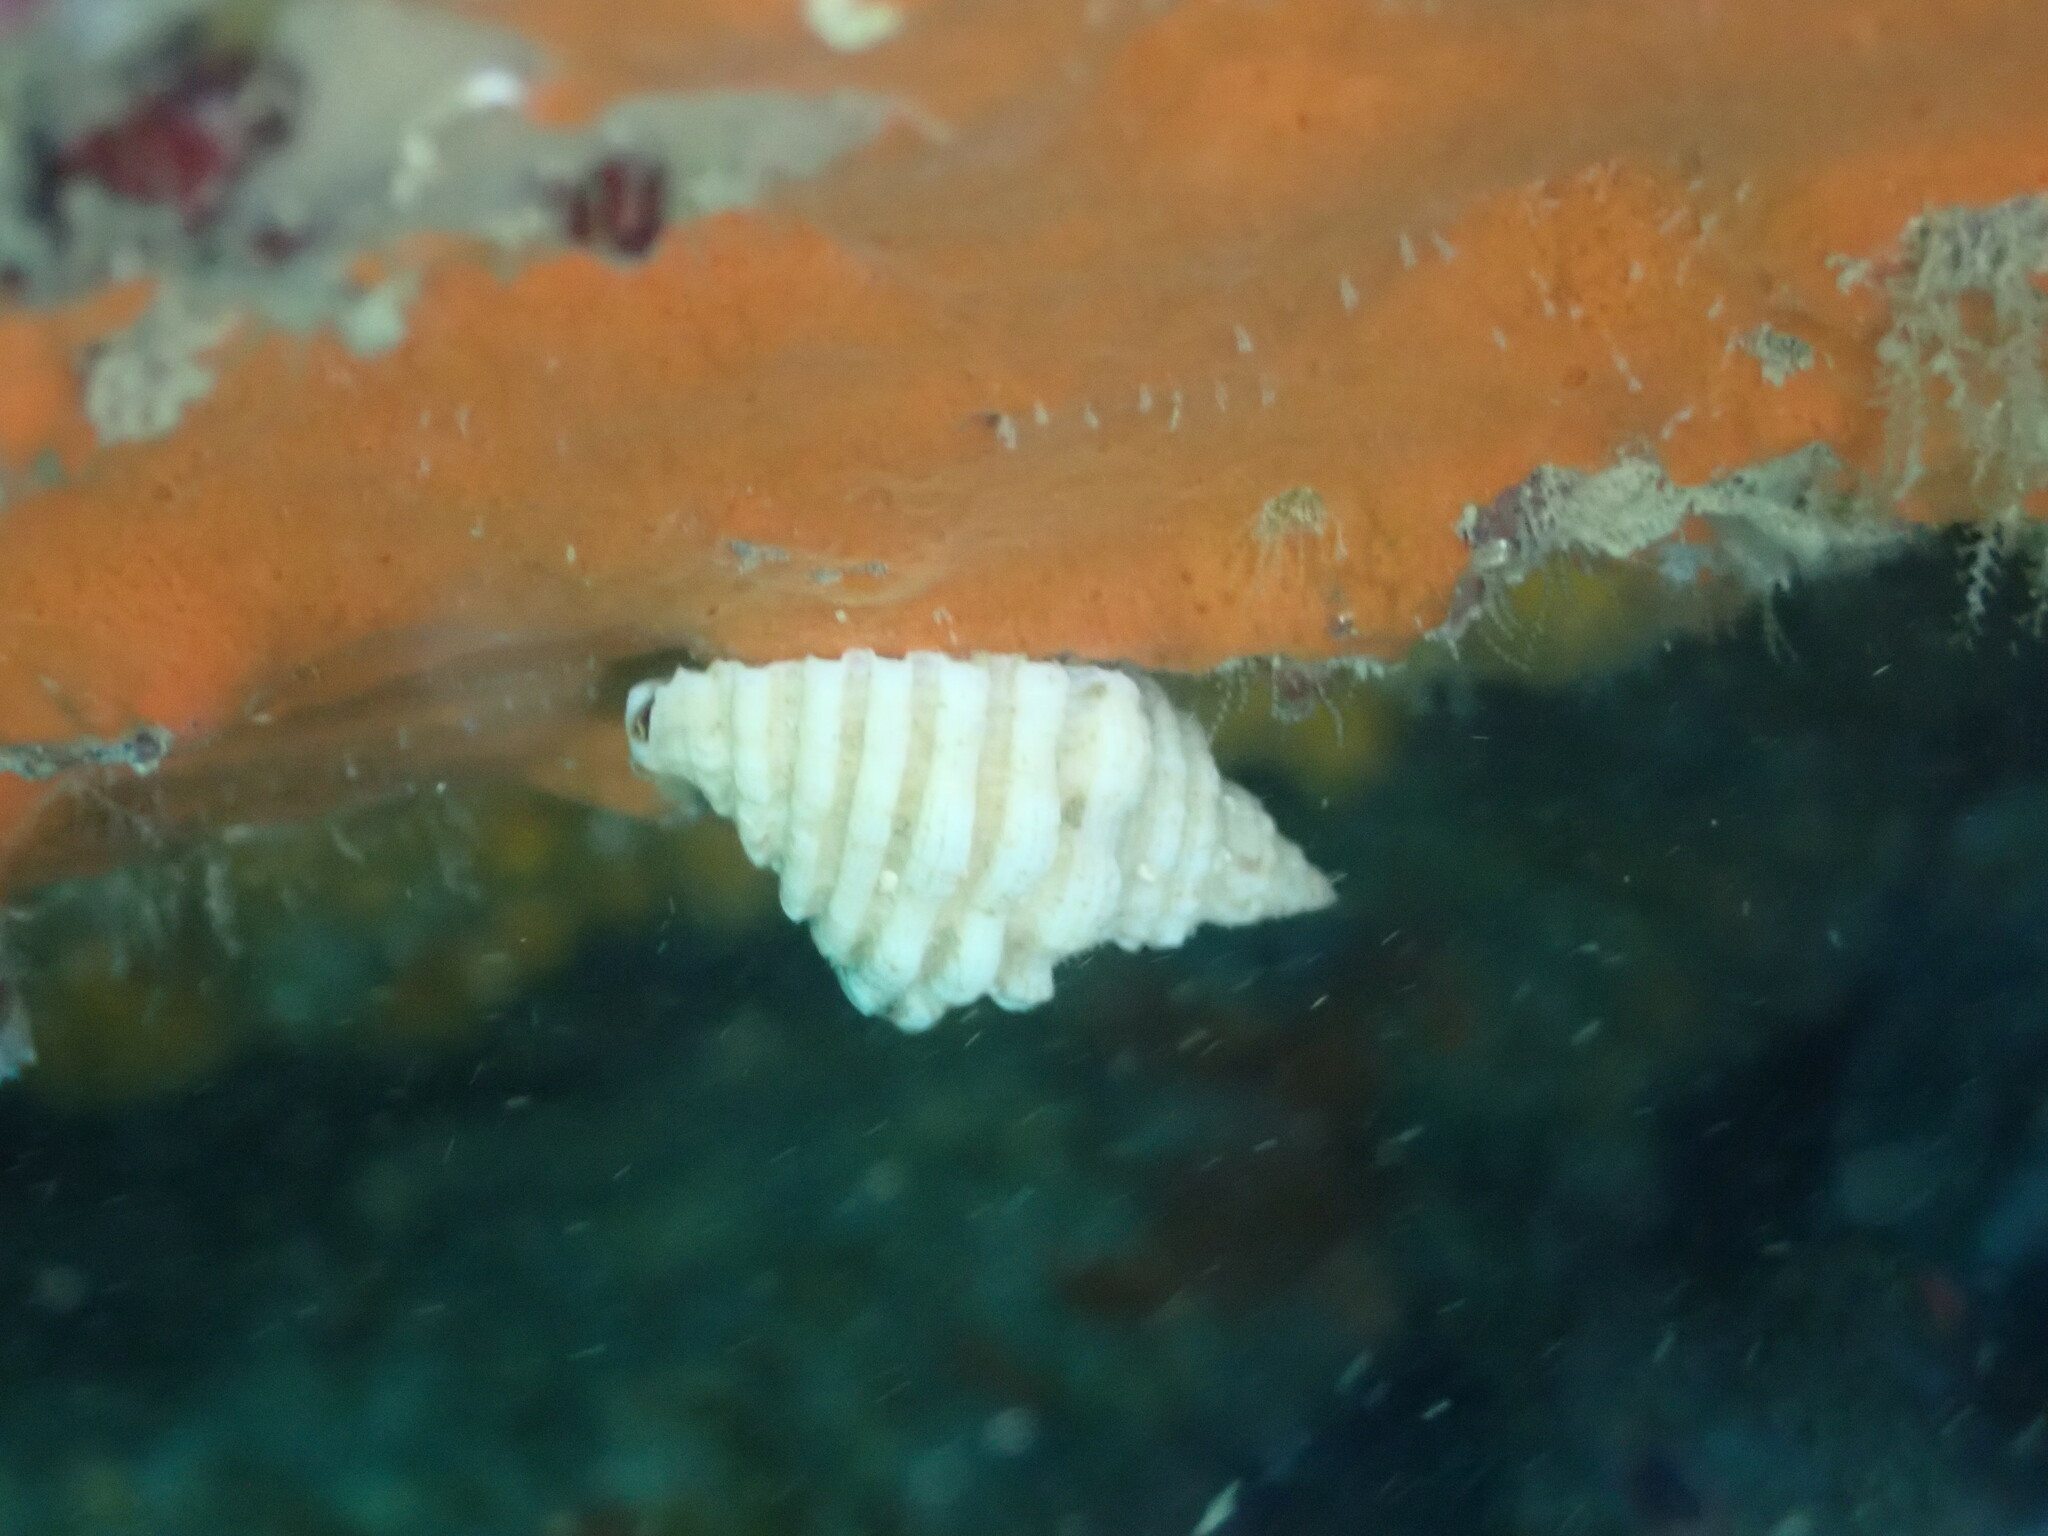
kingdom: Animalia
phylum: Mollusca
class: Gastropoda
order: Neogastropoda
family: Muricidae
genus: Dicathais
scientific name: Dicathais orbita
